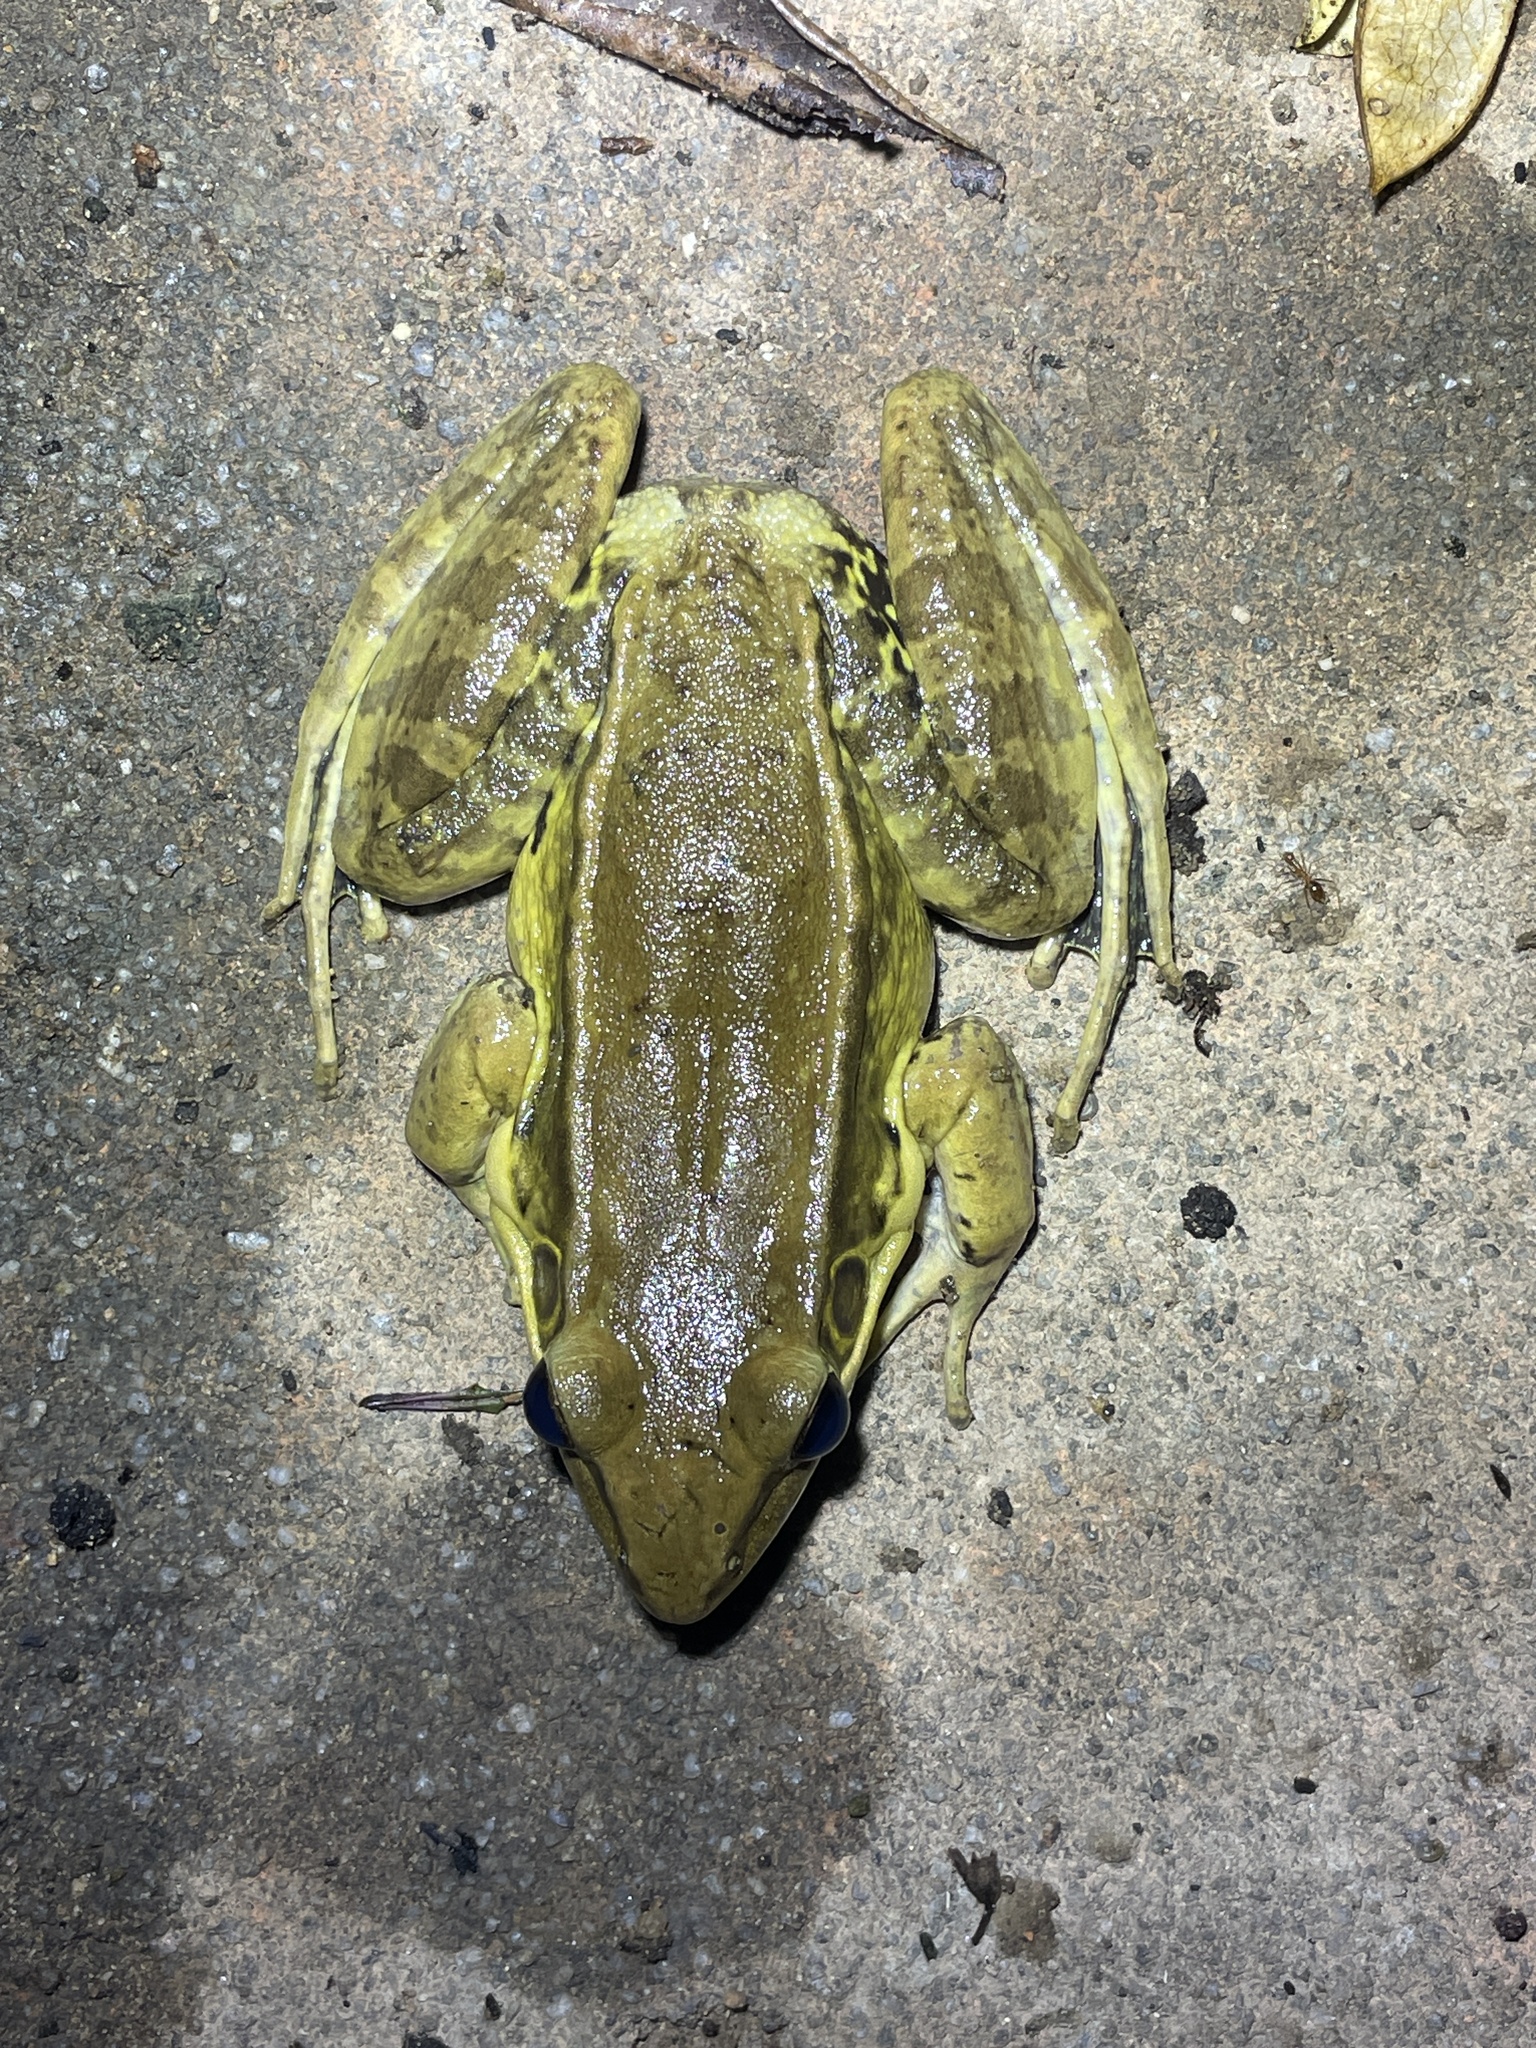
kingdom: Animalia
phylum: Chordata
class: Amphibia
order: Anura
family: Ranidae
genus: Sylvirana
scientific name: Sylvirana guentheri
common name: Guenther's amoy frog
